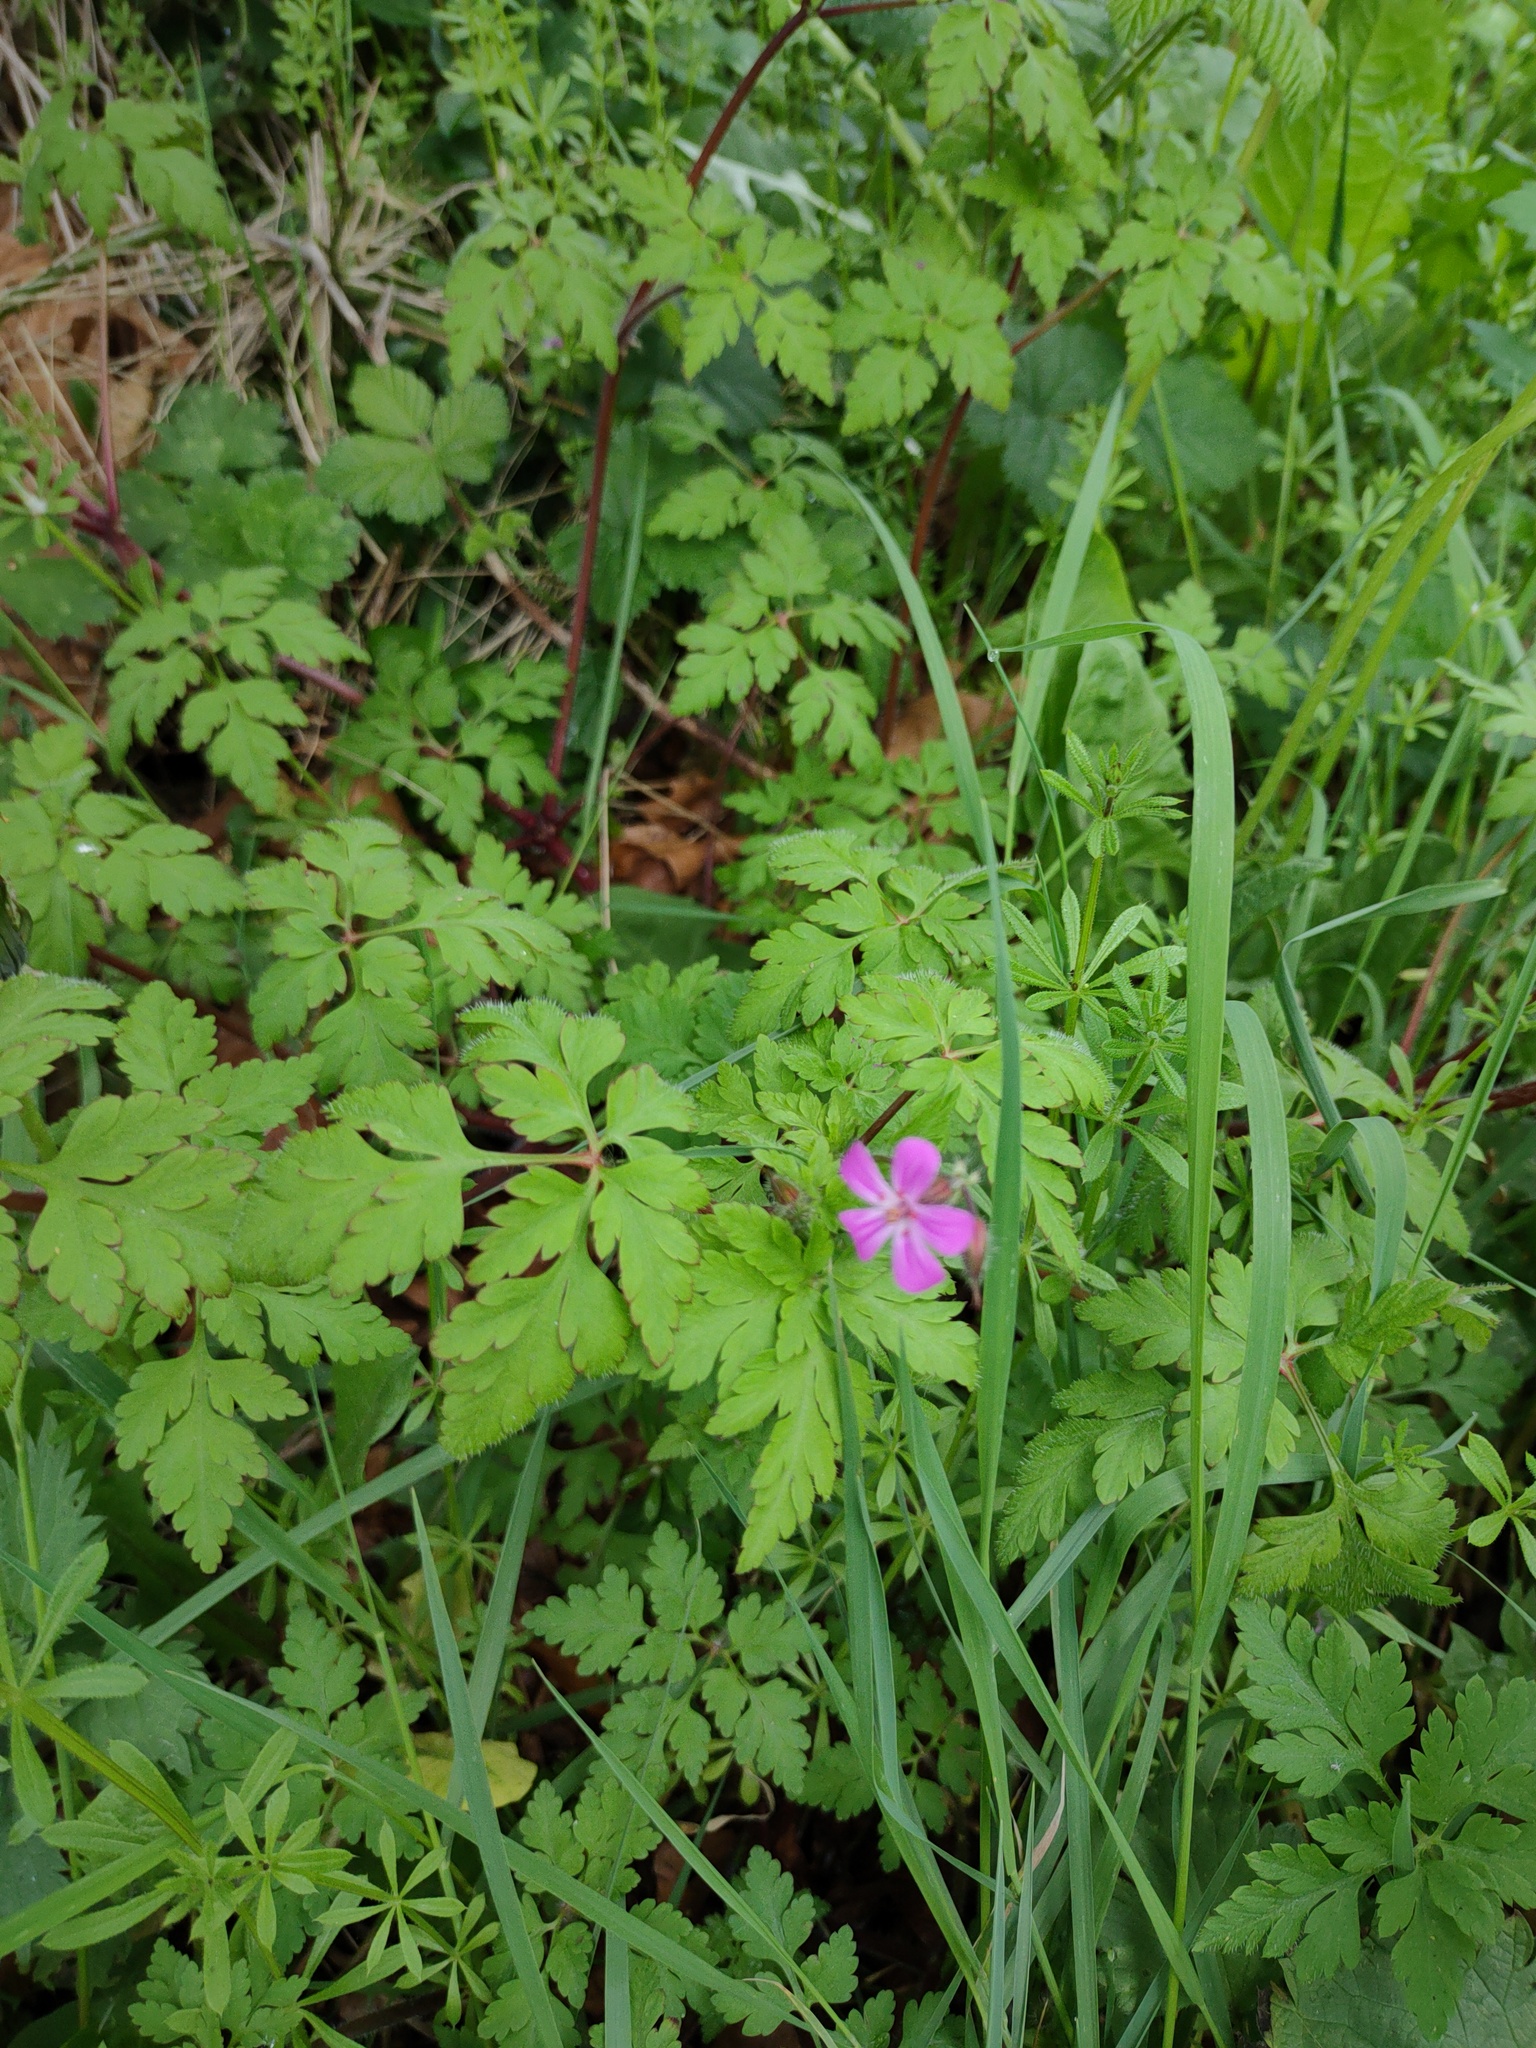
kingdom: Plantae
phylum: Tracheophyta
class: Magnoliopsida
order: Geraniales
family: Geraniaceae
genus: Geranium
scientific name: Geranium robertianum
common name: Herb-robert
